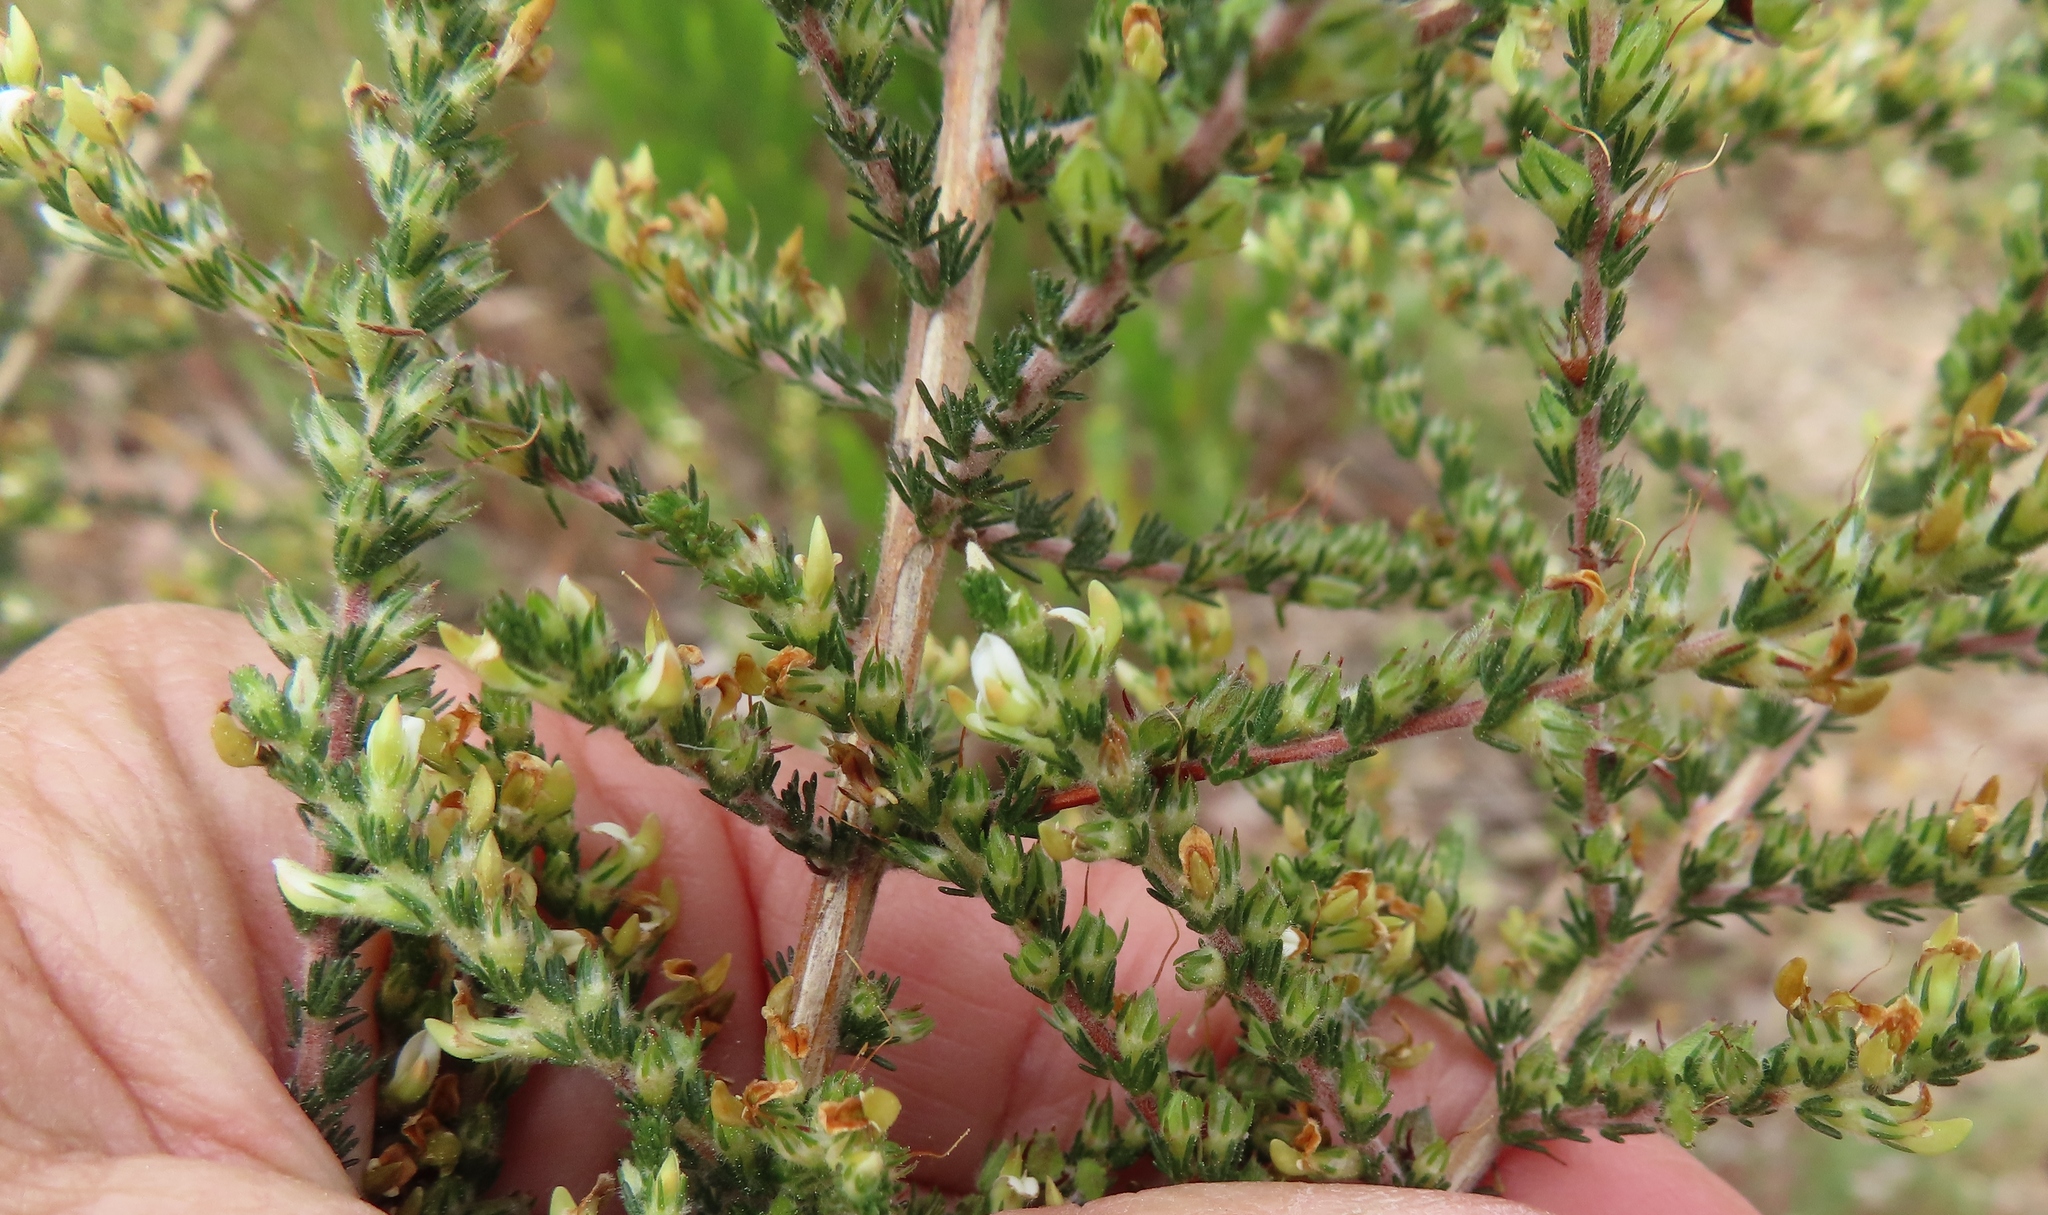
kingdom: Plantae
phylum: Tracheophyta
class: Magnoliopsida
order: Fabales
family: Fabaceae
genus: Aspalathus
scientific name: Aspalathus hispida
